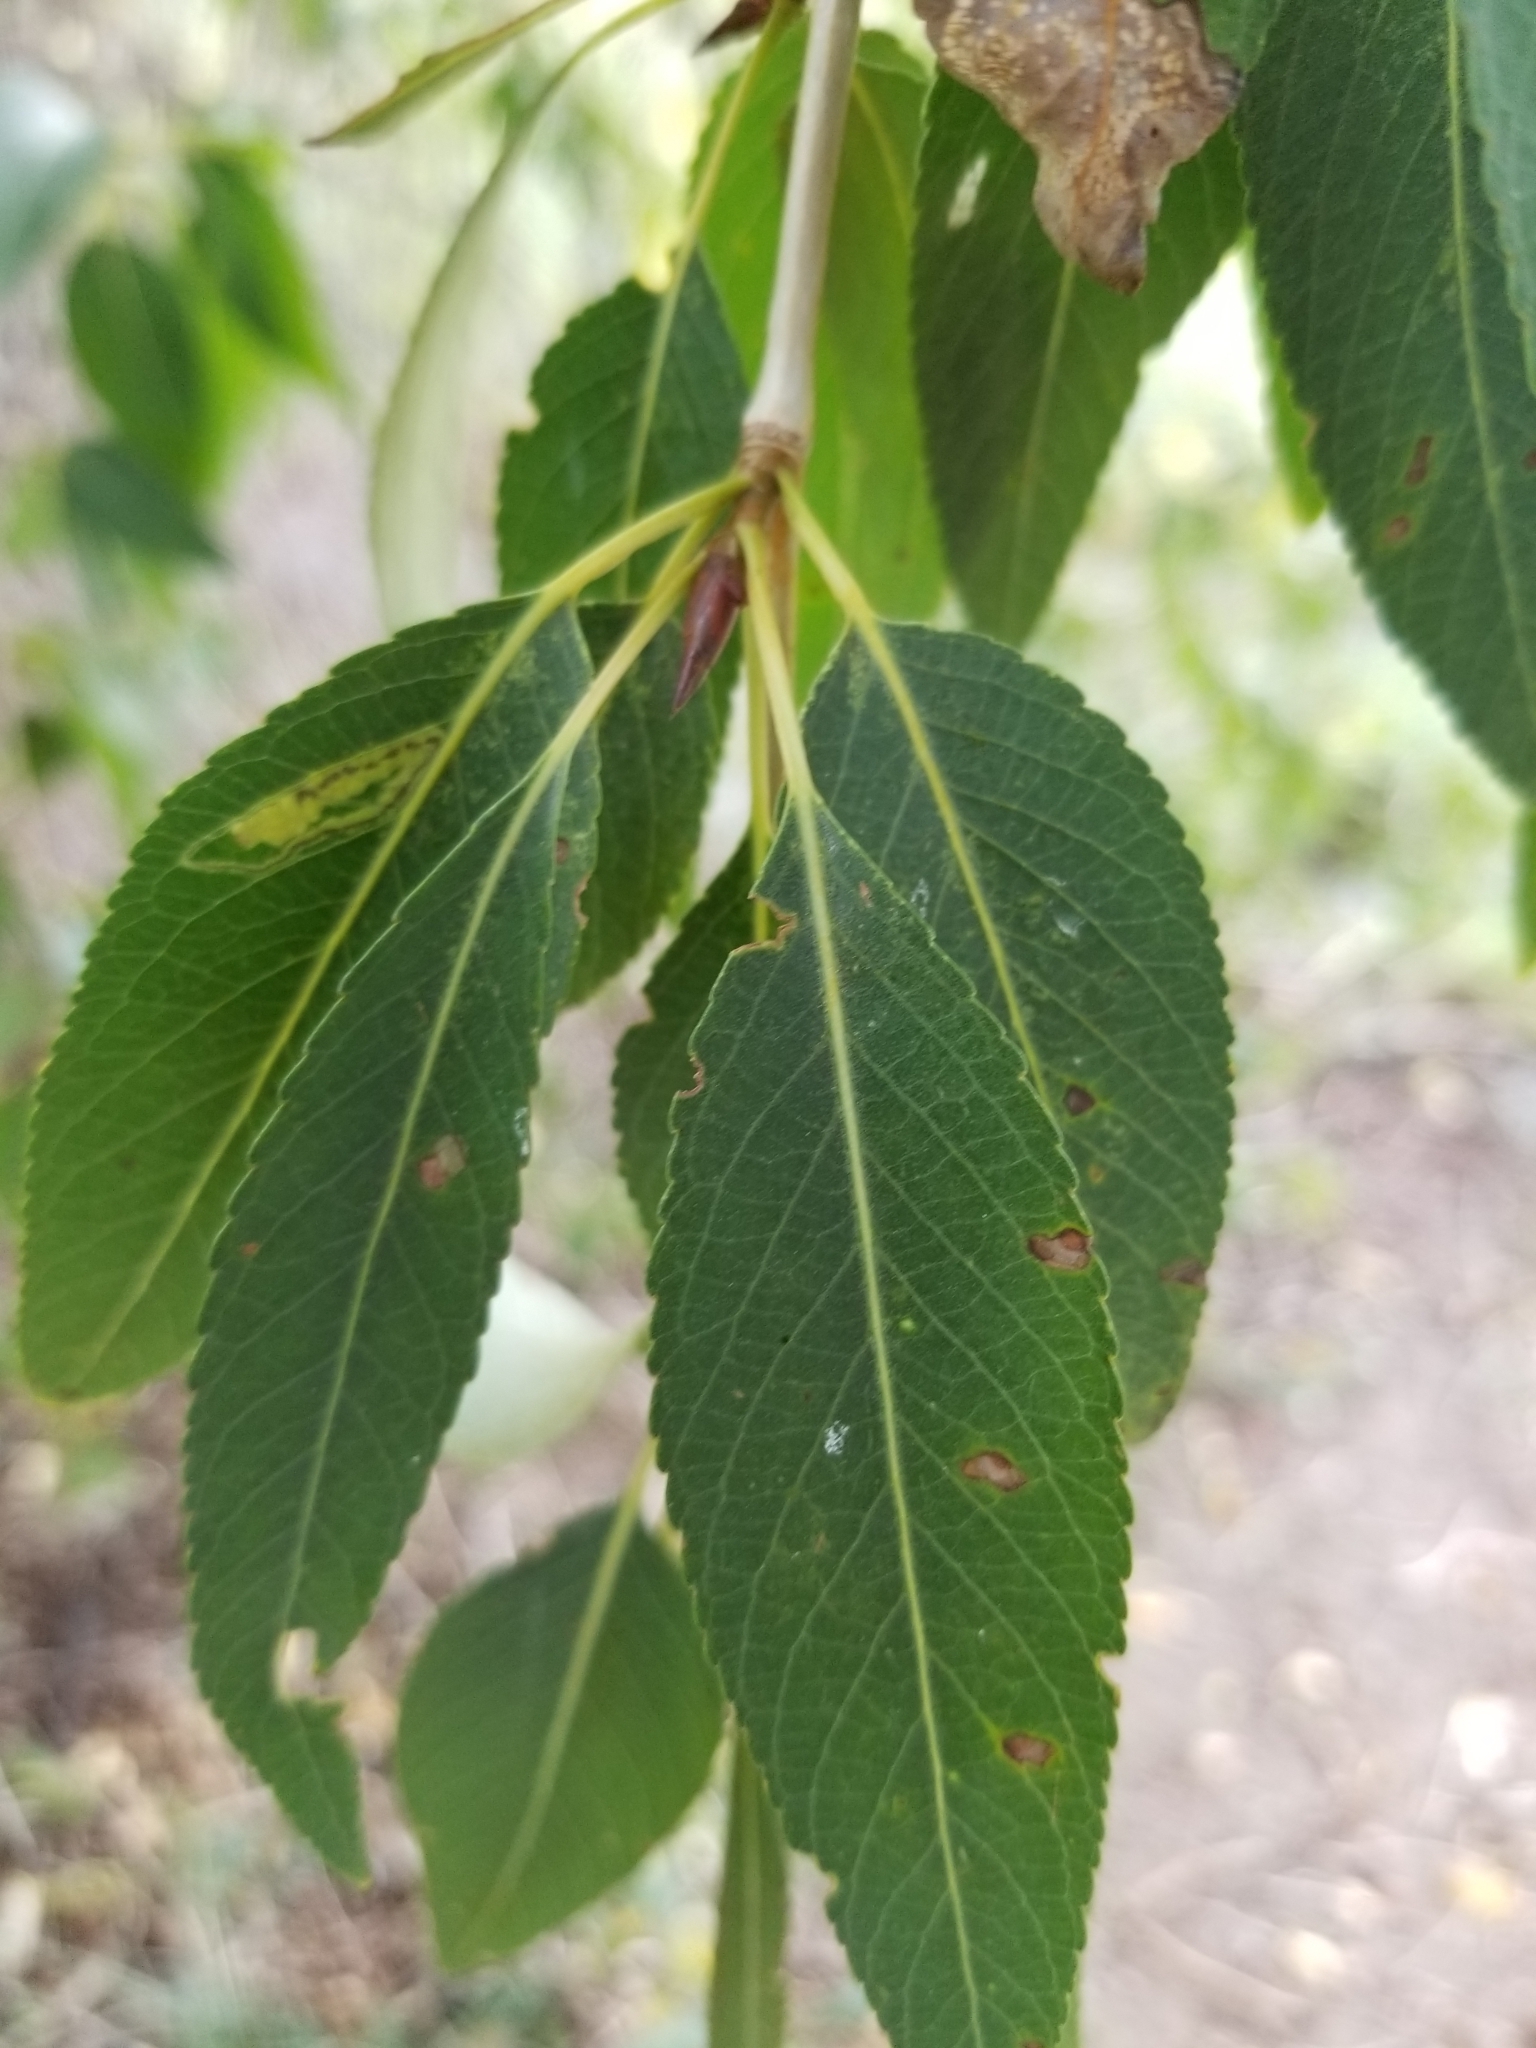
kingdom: Plantae
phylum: Tracheophyta
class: Magnoliopsida
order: Malpighiales
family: Salicaceae
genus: Populus
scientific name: Populus angustifolia
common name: Willow cottonwood
